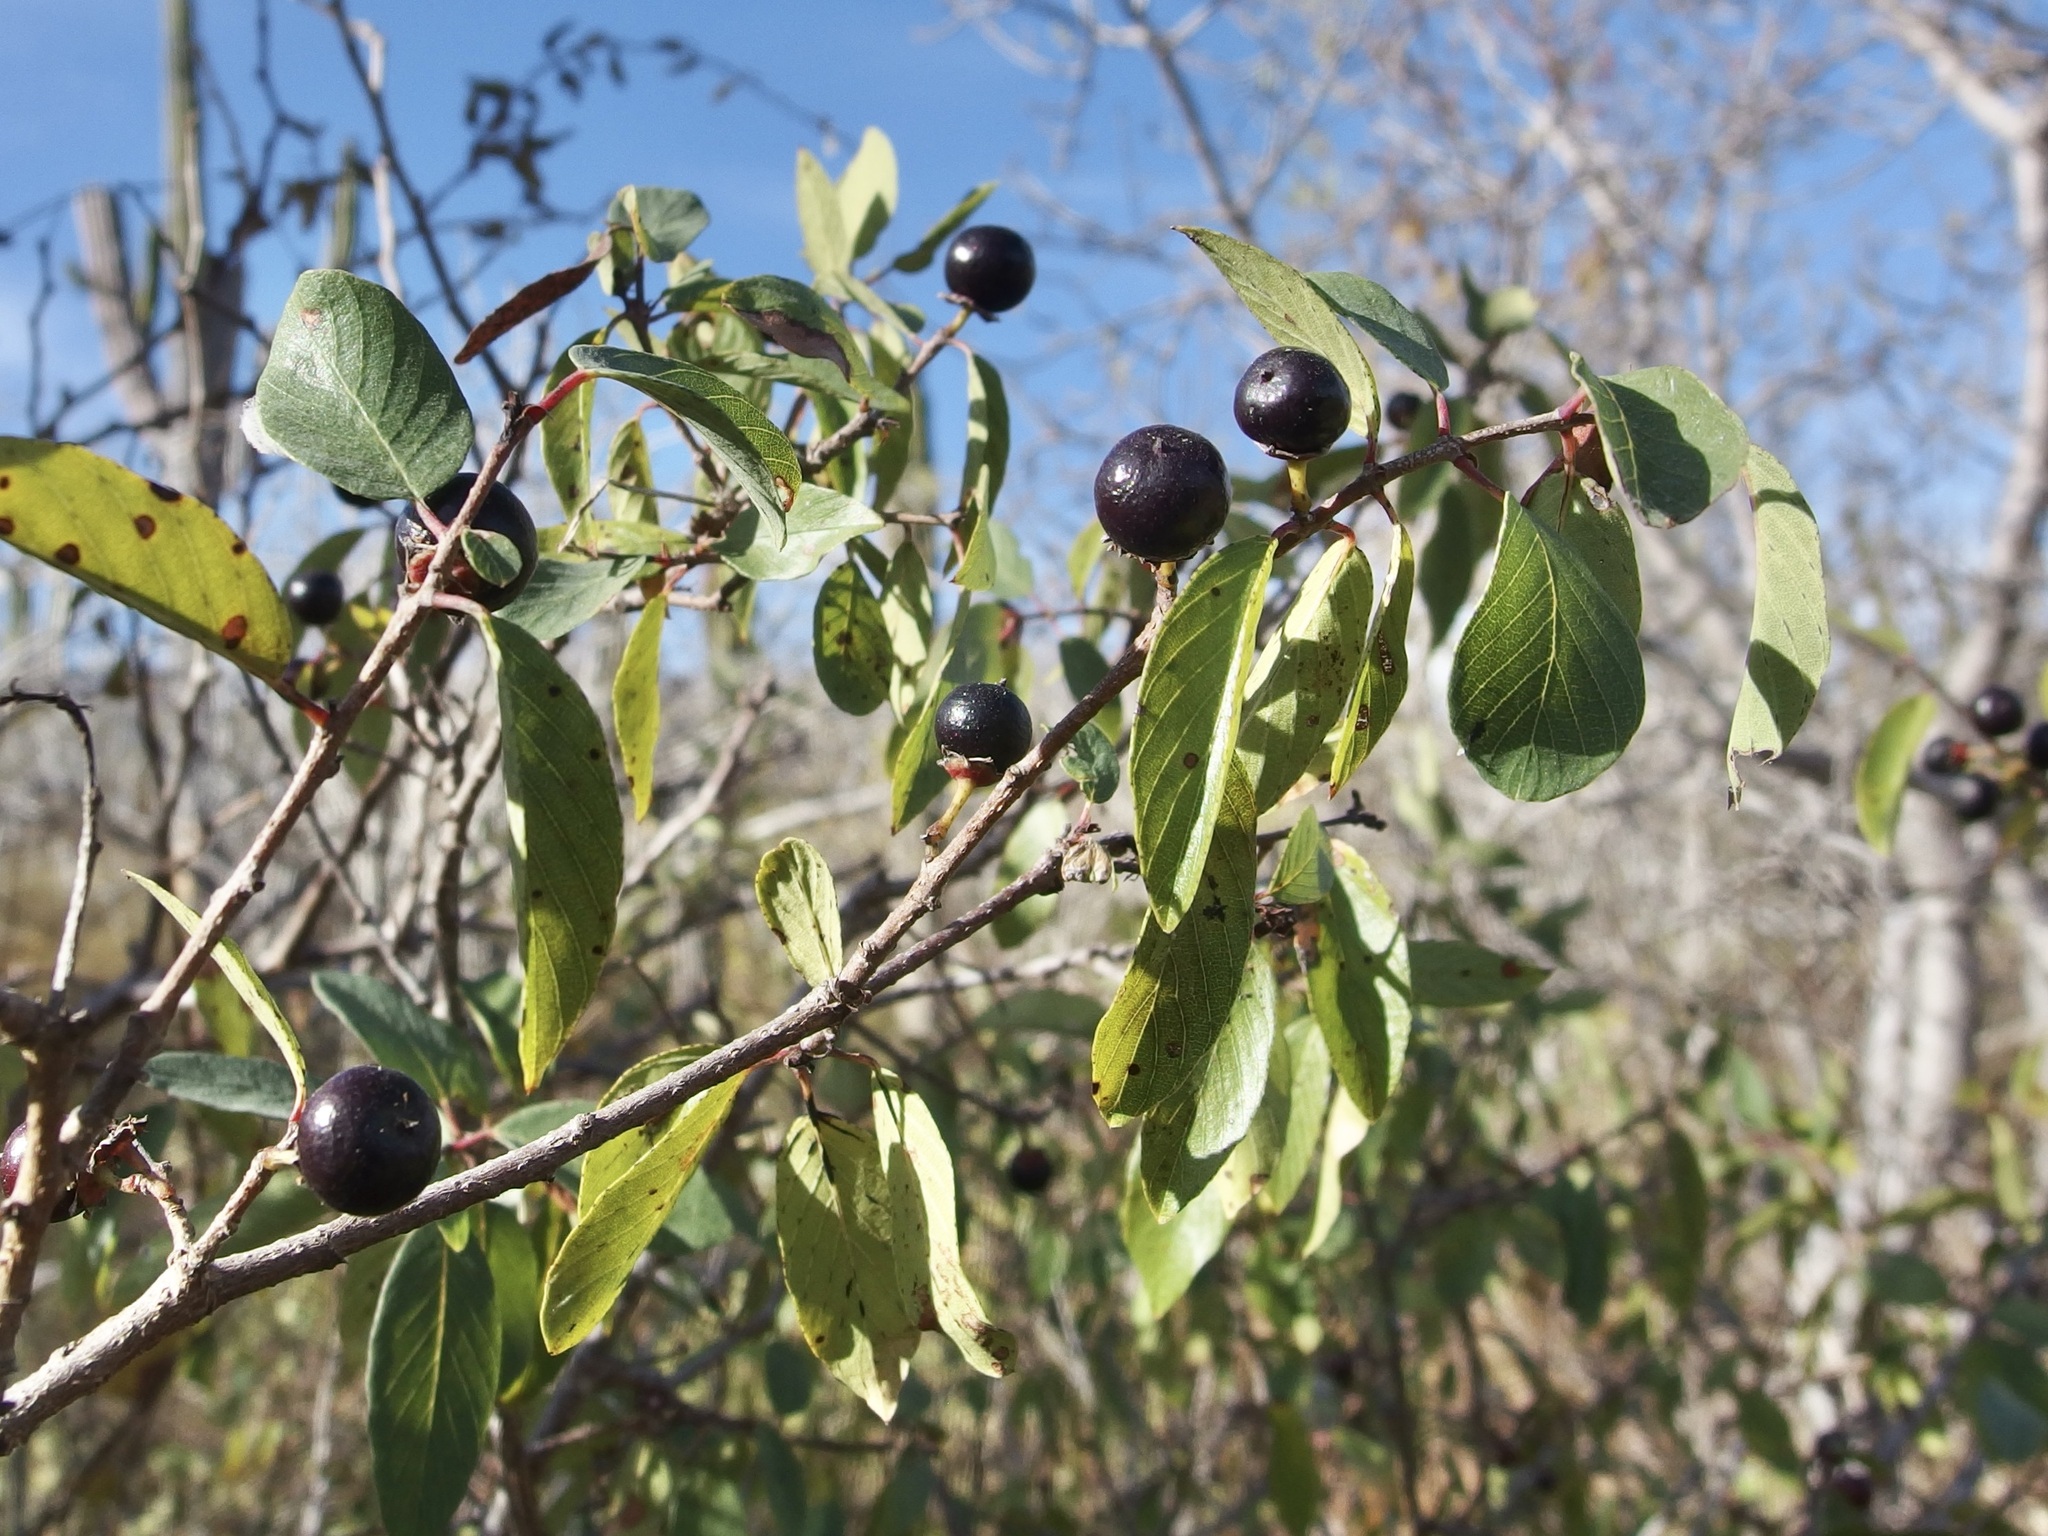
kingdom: Plantae
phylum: Tracheophyta
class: Magnoliopsida
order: Rosales
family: Rhamnaceae
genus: Karwinskia
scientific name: Karwinskia humboldtiana
